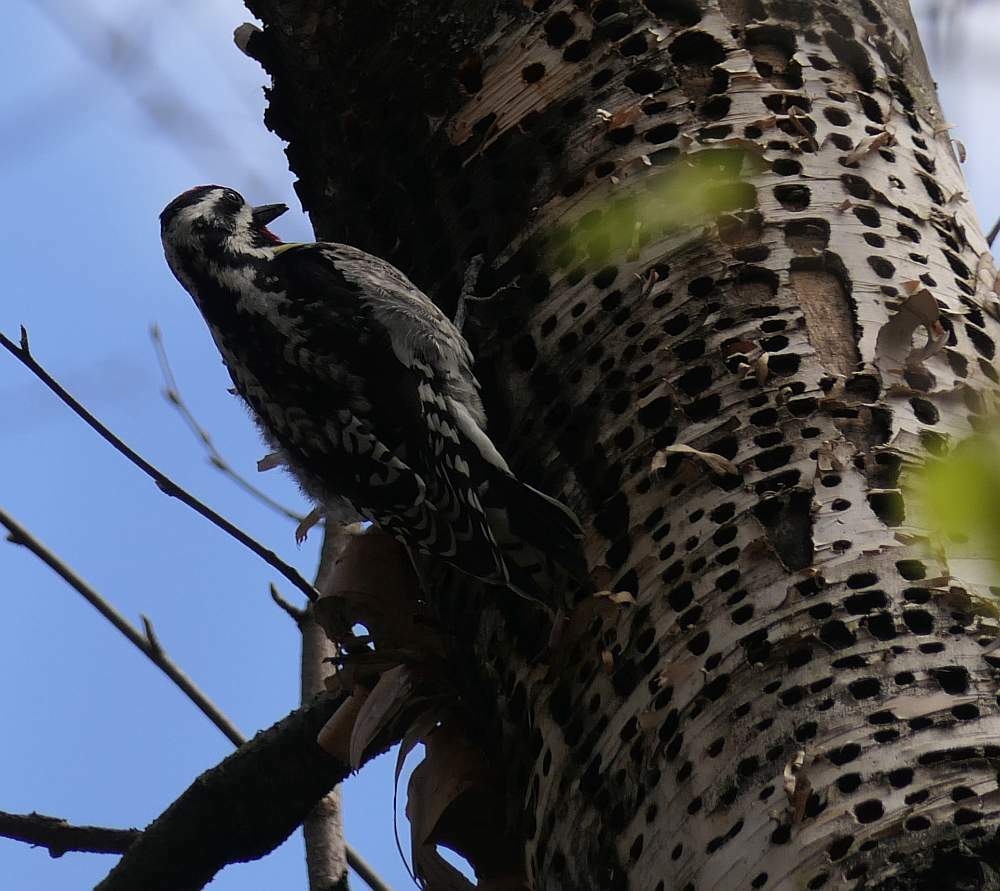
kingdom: Animalia
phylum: Chordata
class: Aves
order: Piciformes
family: Picidae
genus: Sphyrapicus
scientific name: Sphyrapicus varius
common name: Yellow-bellied sapsucker
